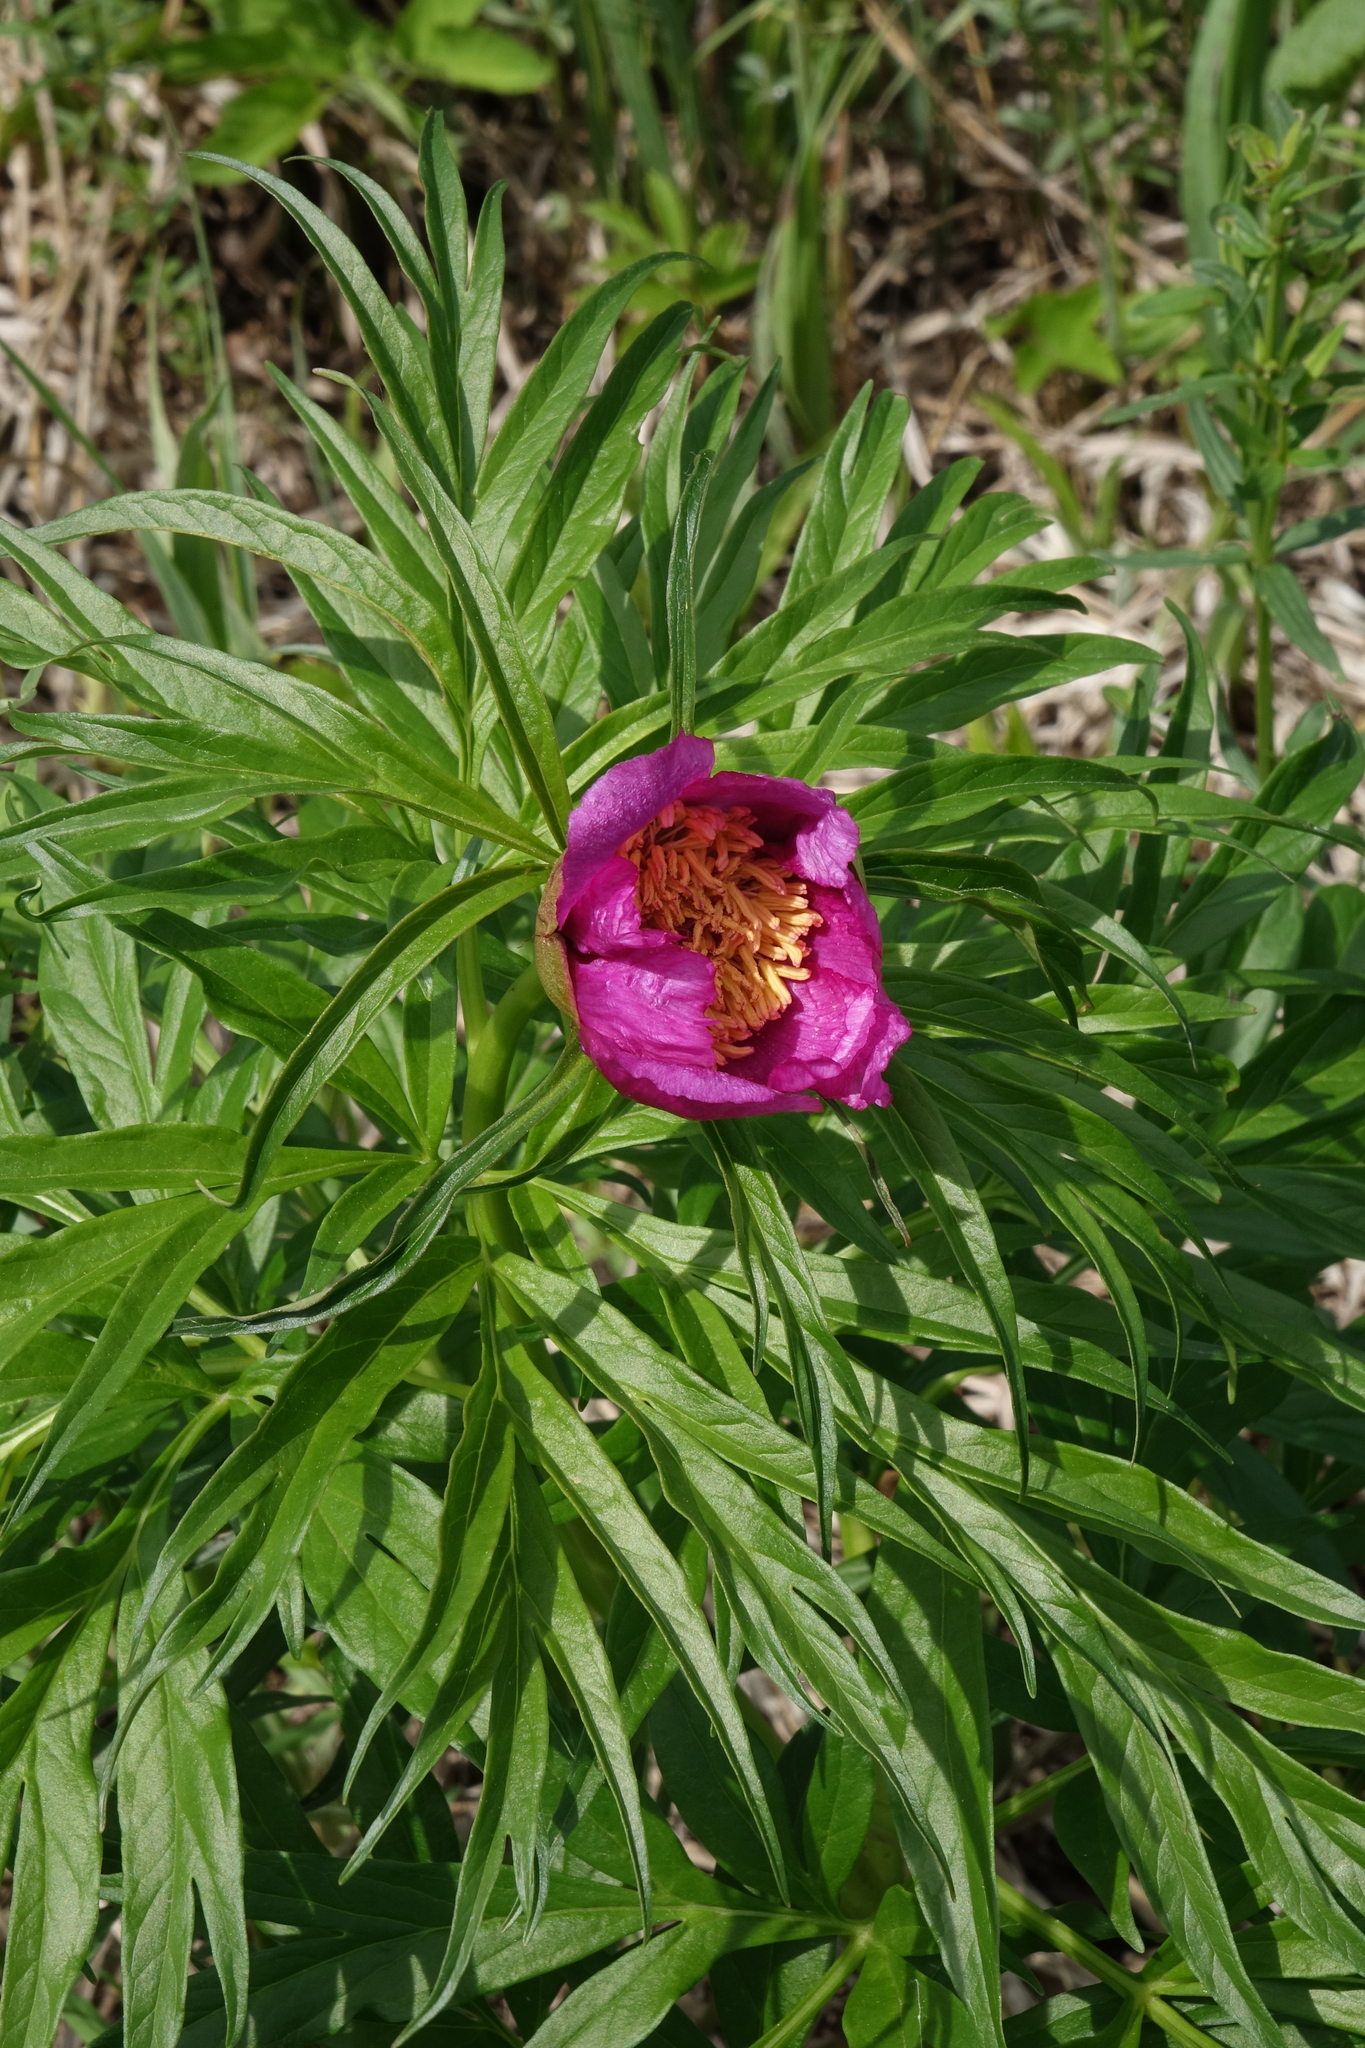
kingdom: Plantae
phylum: Tracheophyta
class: Magnoliopsida
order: Saxifragales
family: Paeoniaceae
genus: Paeonia
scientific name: Paeonia anomala
